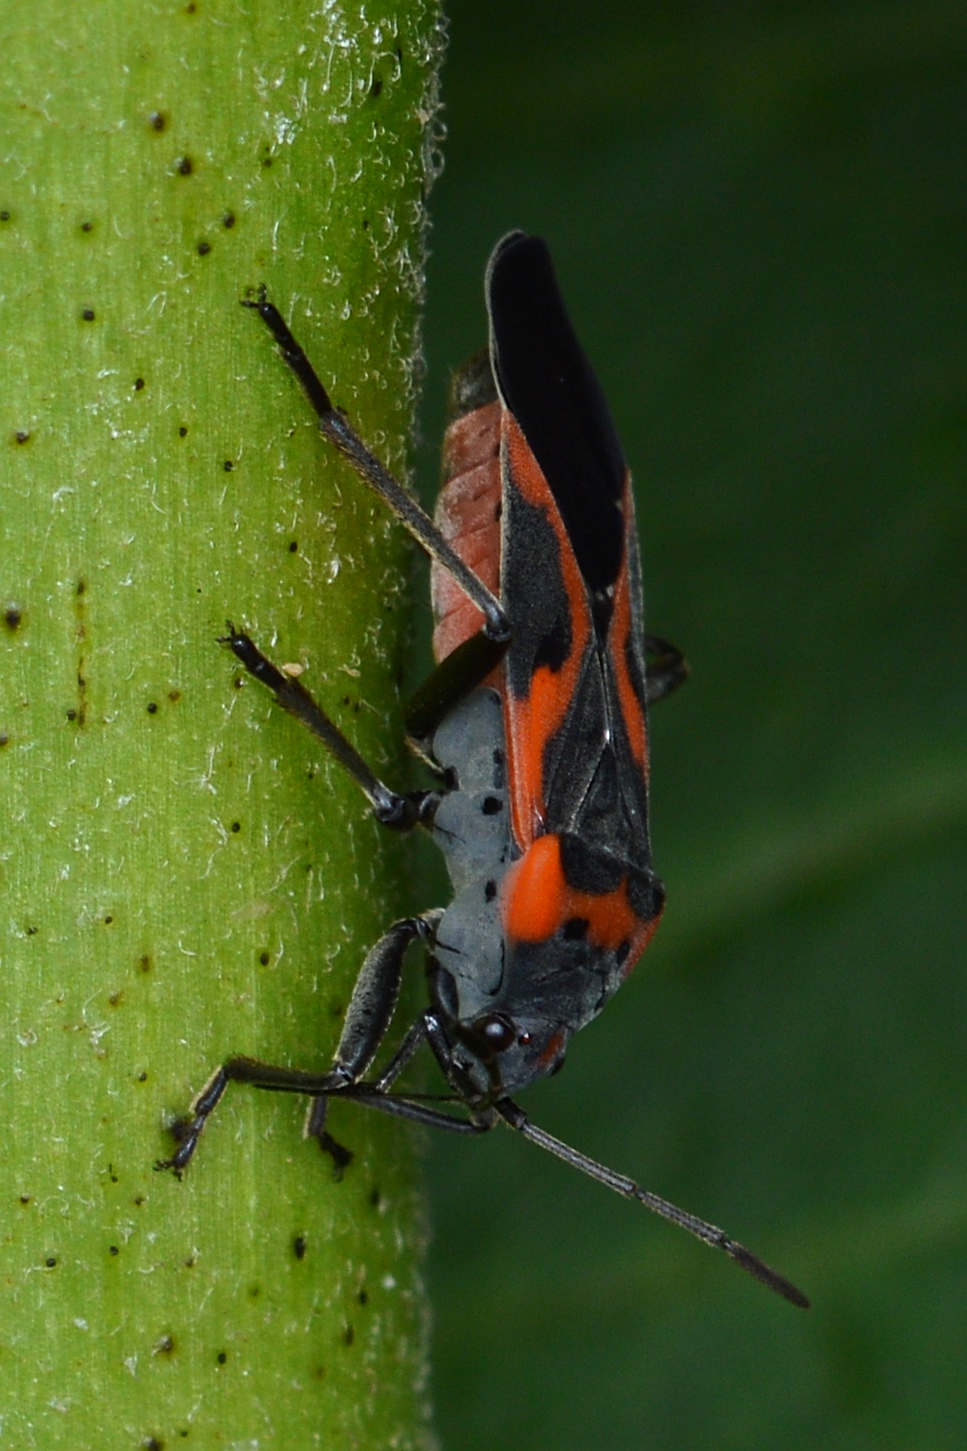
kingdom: Animalia
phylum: Arthropoda
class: Insecta
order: Hemiptera
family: Lygaeidae
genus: Lygaeus
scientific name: Lygaeus kalmii
